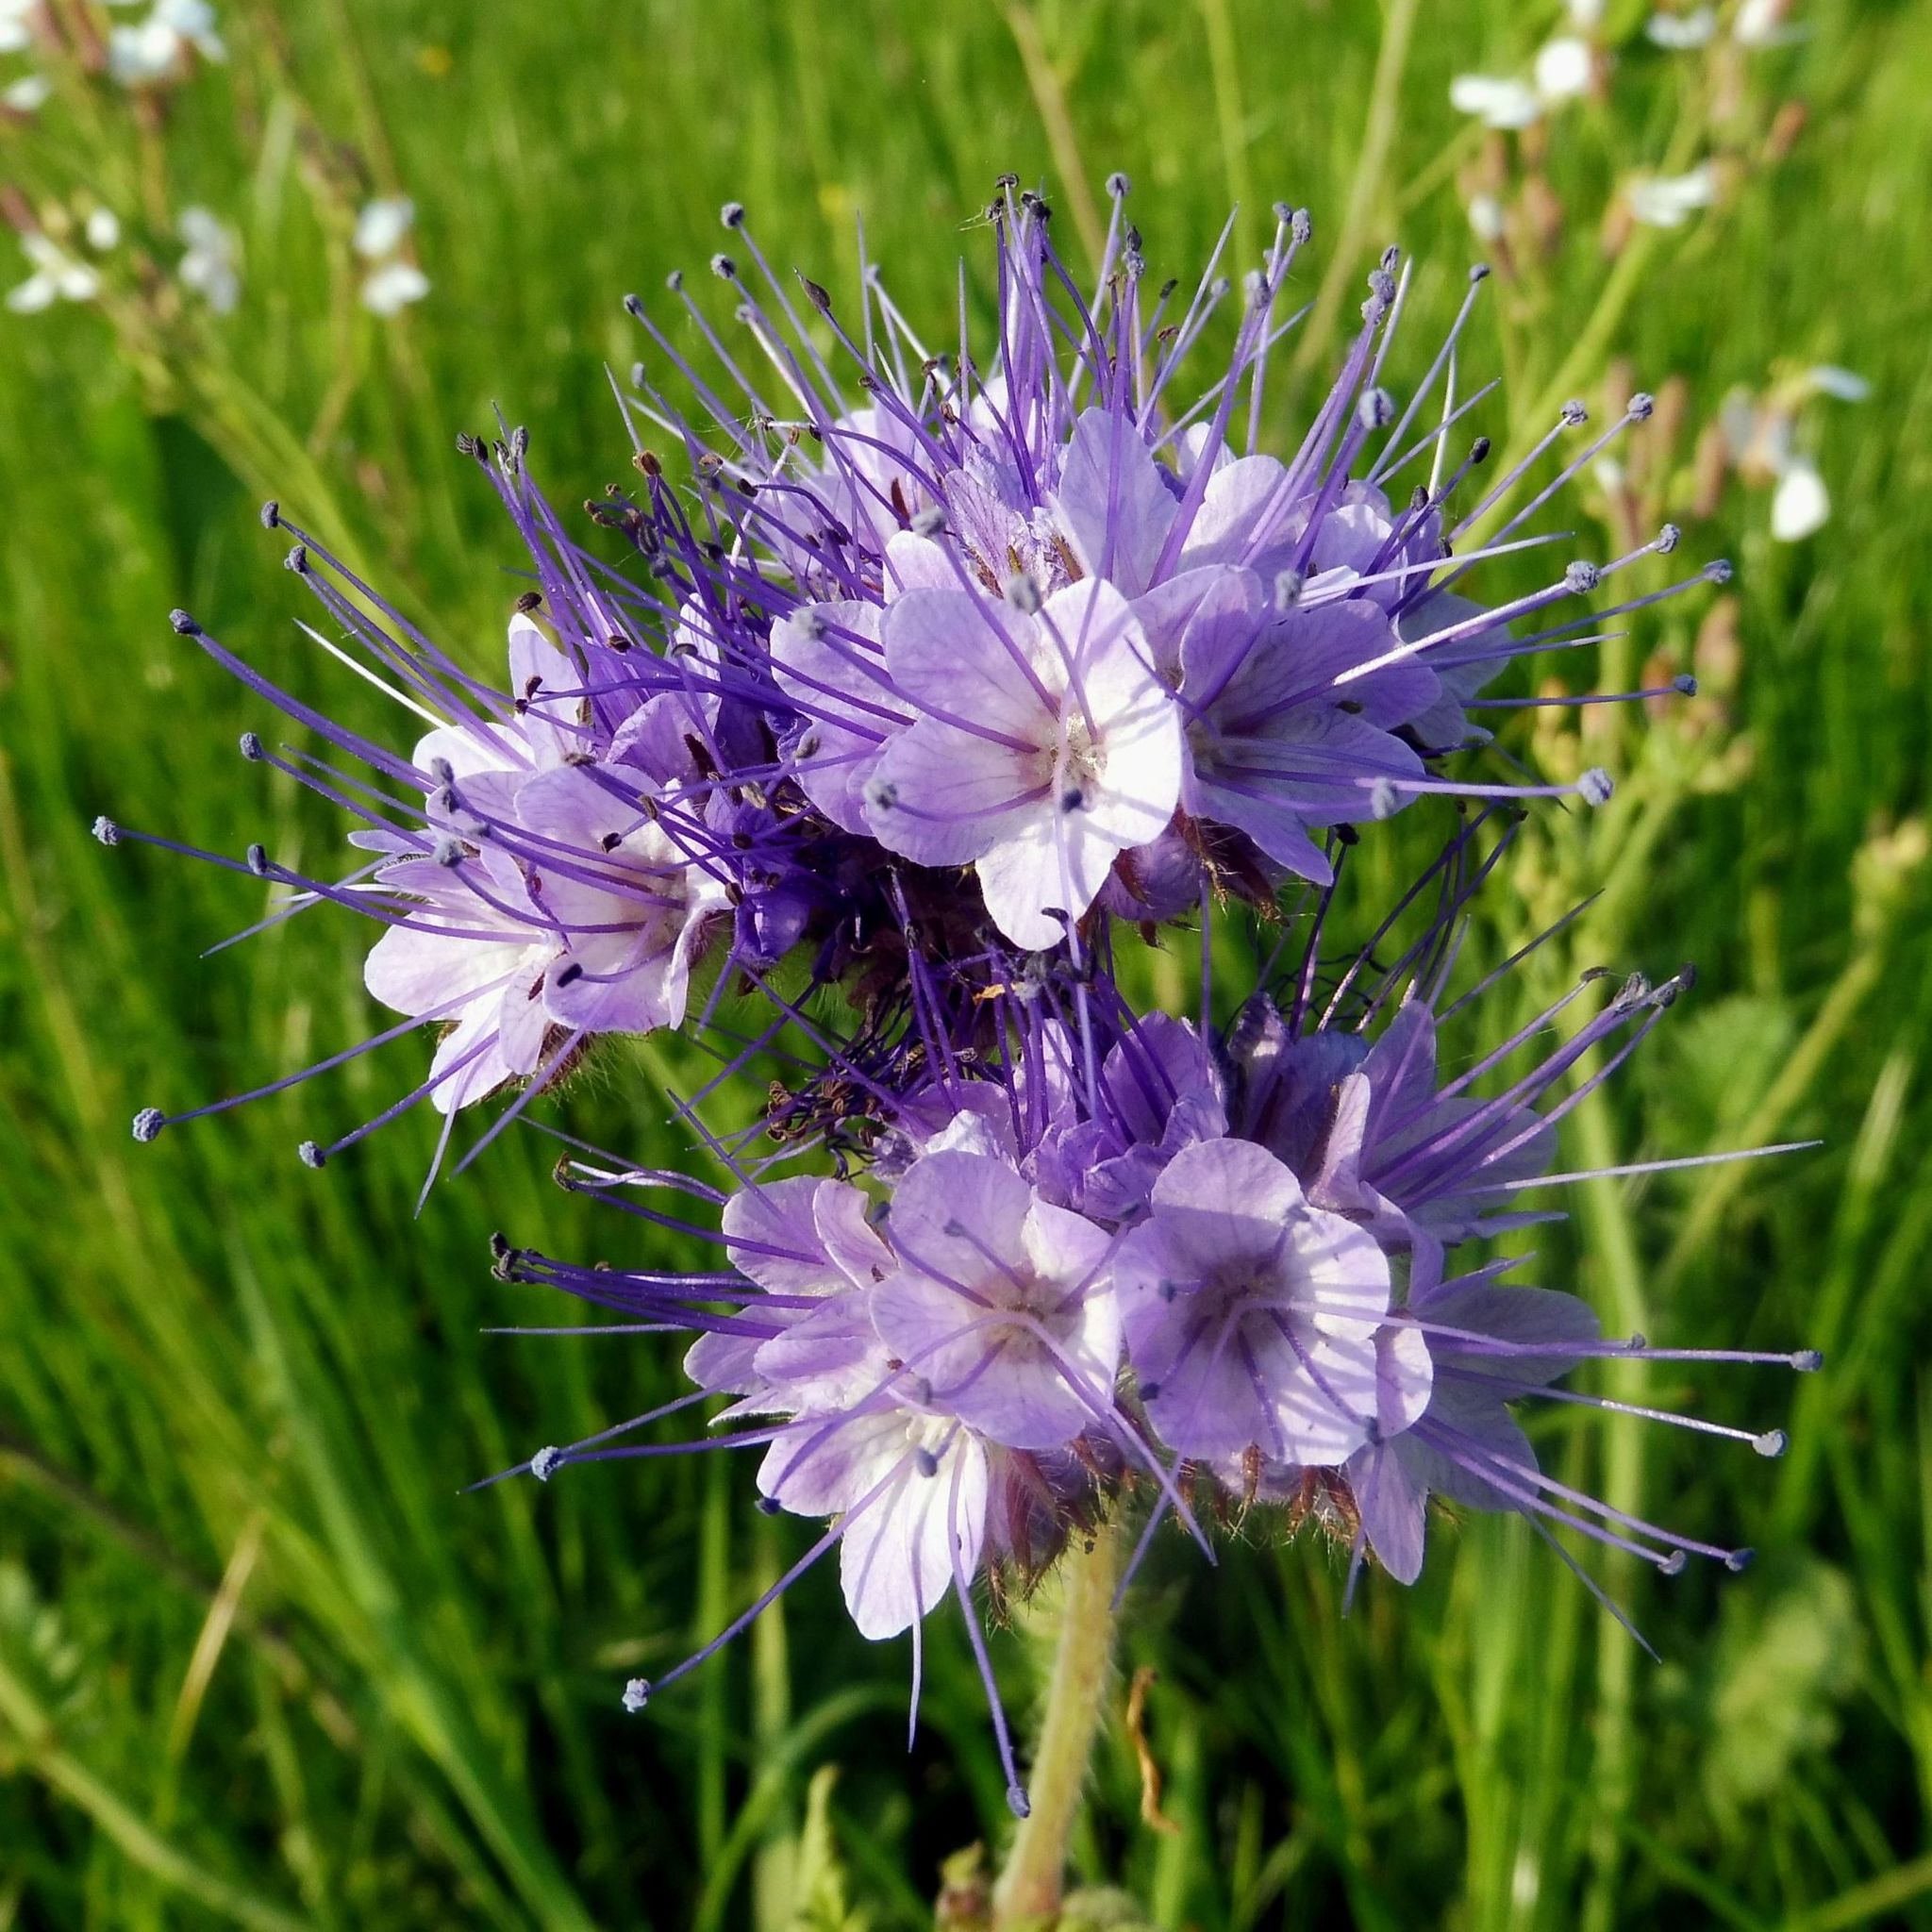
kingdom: Plantae
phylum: Tracheophyta
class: Magnoliopsida
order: Boraginales
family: Hydrophyllaceae
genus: Phacelia
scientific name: Phacelia tanacetifolia
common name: Phacelia
